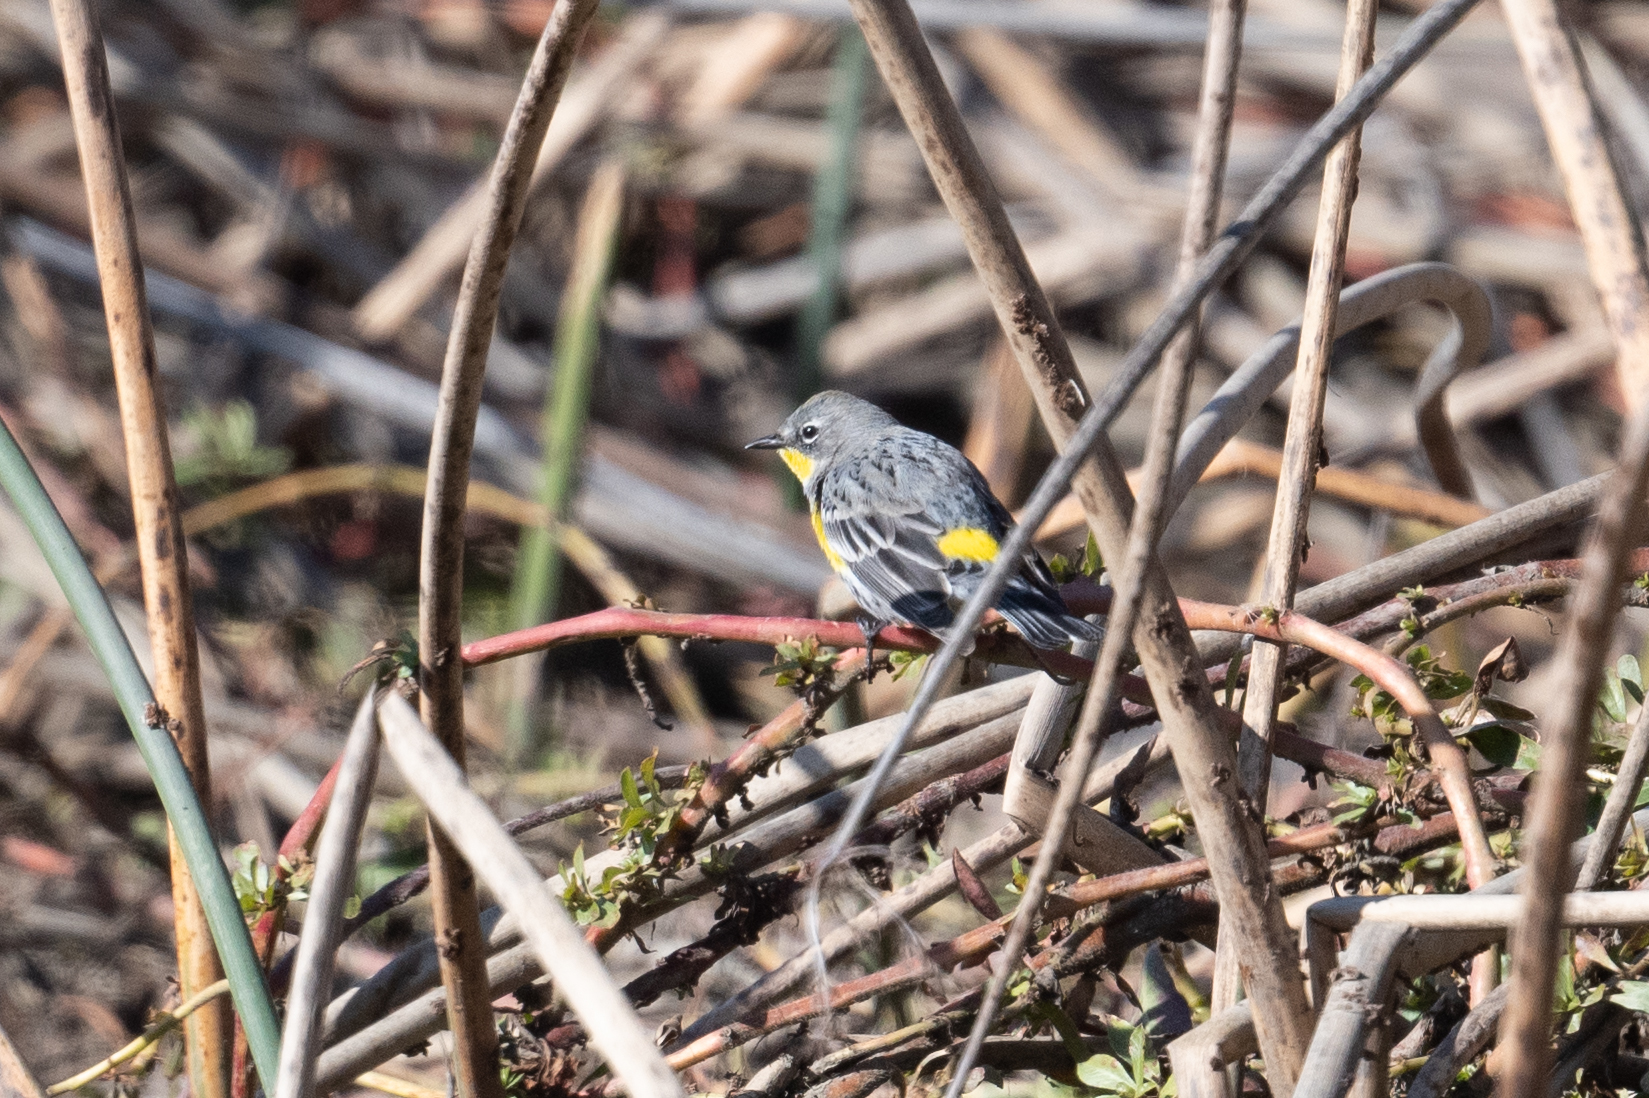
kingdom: Animalia
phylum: Chordata
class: Aves
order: Passeriformes
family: Parulidae
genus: Setophaga
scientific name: Setophaga coronata
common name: Myrtle warbler
